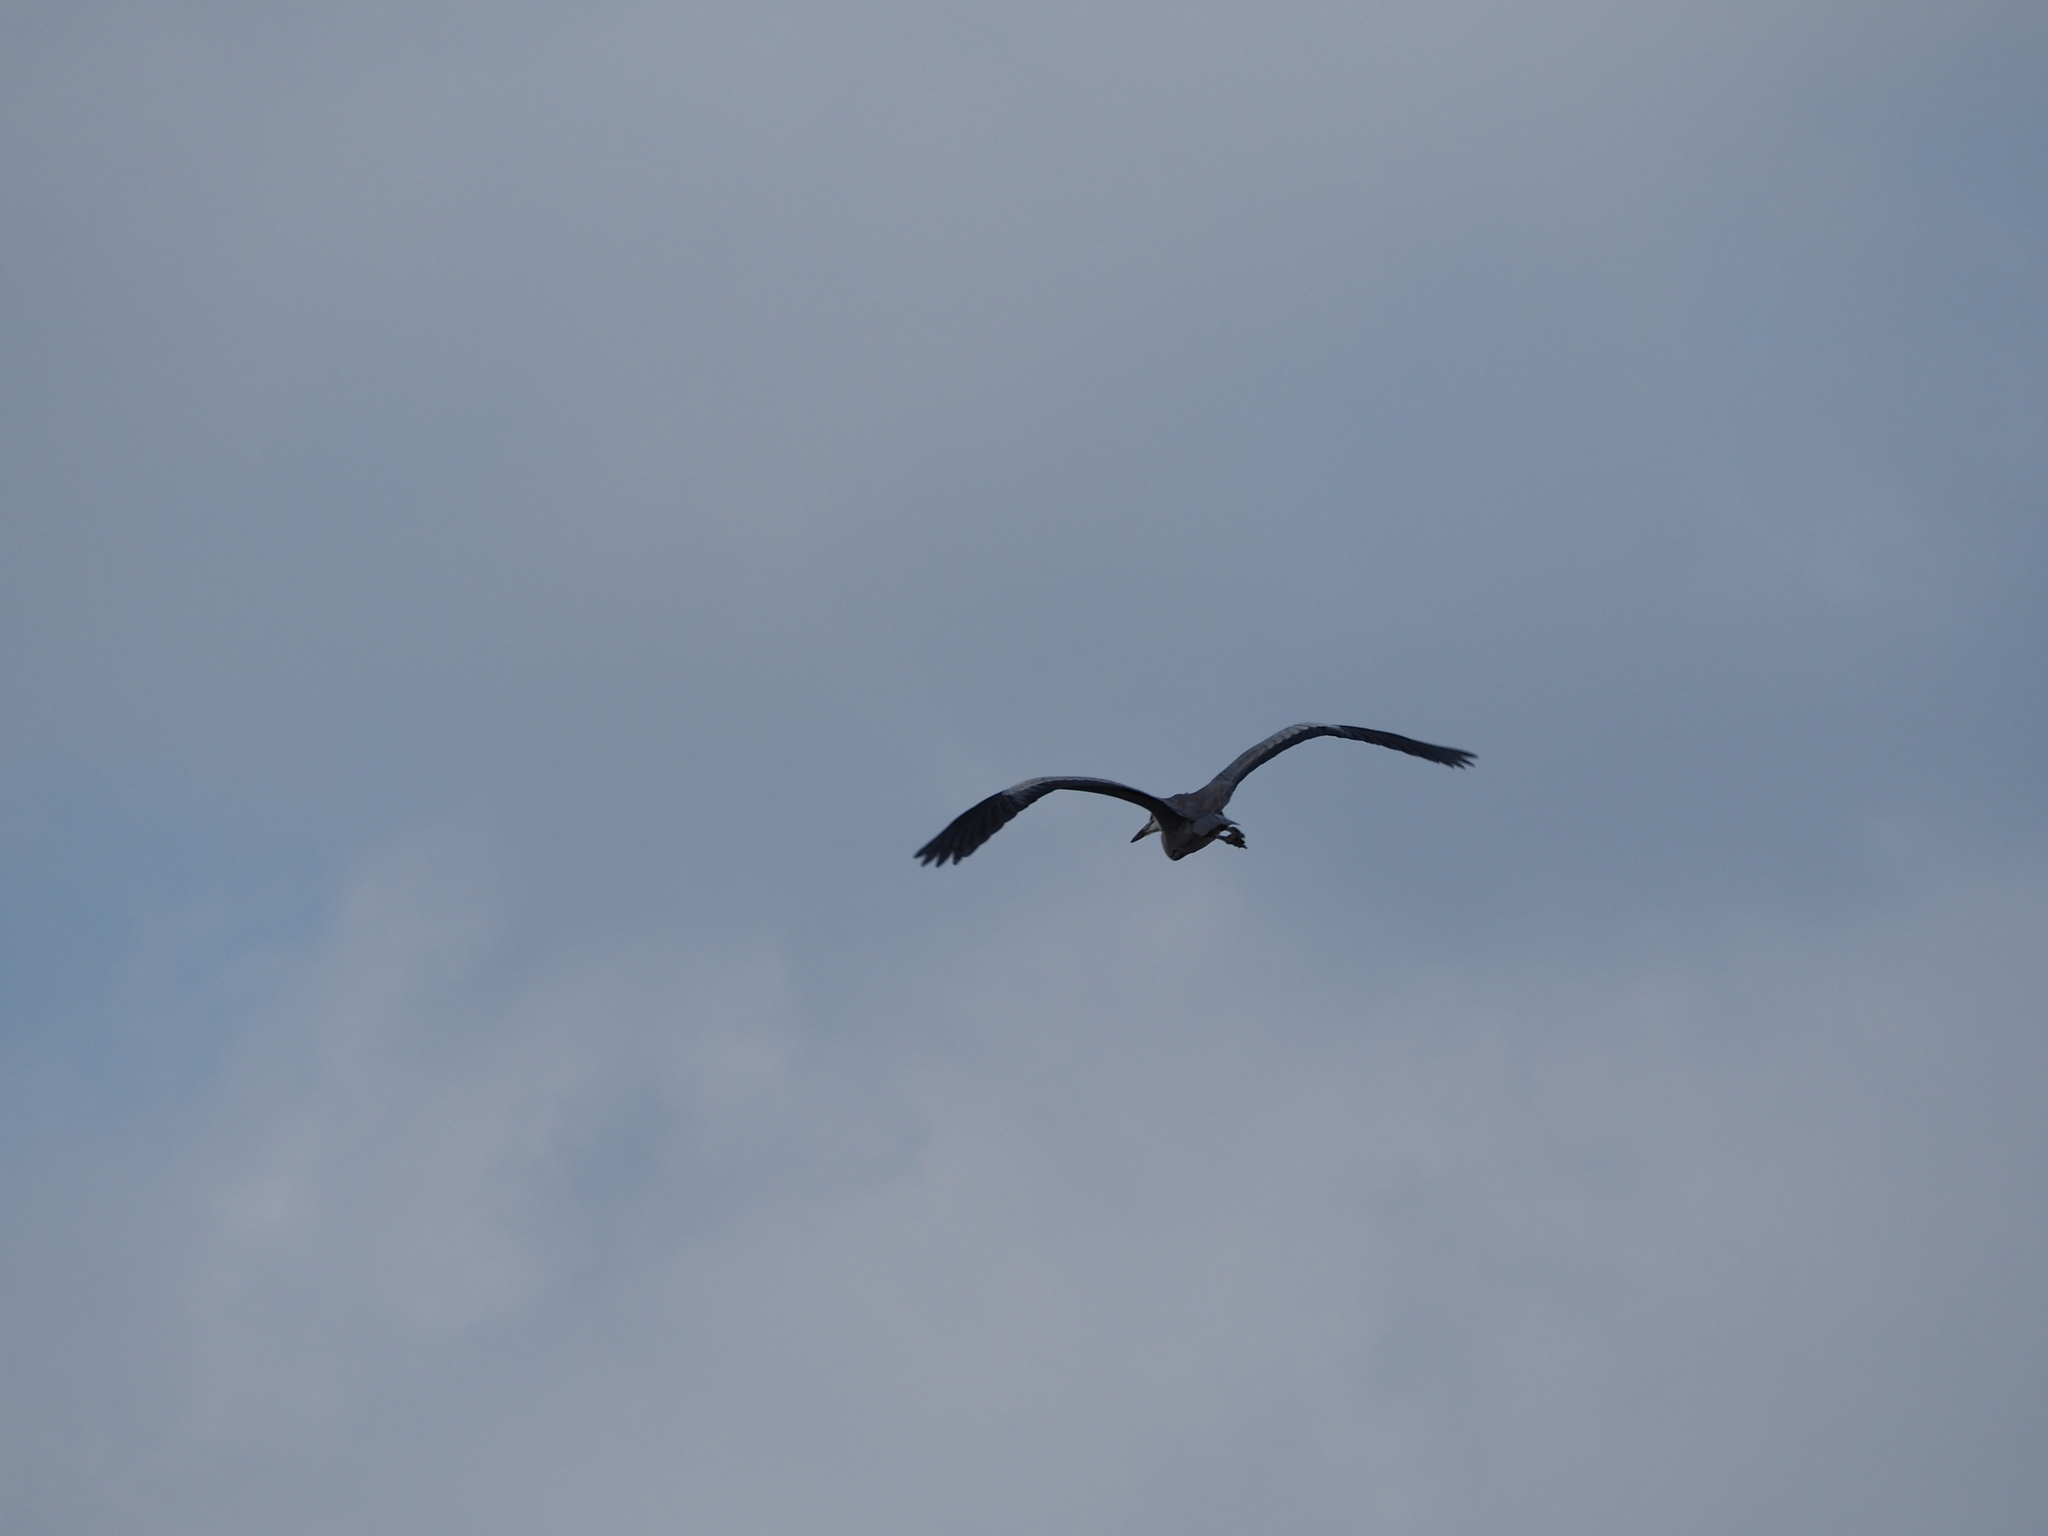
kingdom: Animalia
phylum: Chordata
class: Aves
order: Pelecaniformes
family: Ardeidae
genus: Ardea
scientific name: Ardea cinerea
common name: Grey heron
